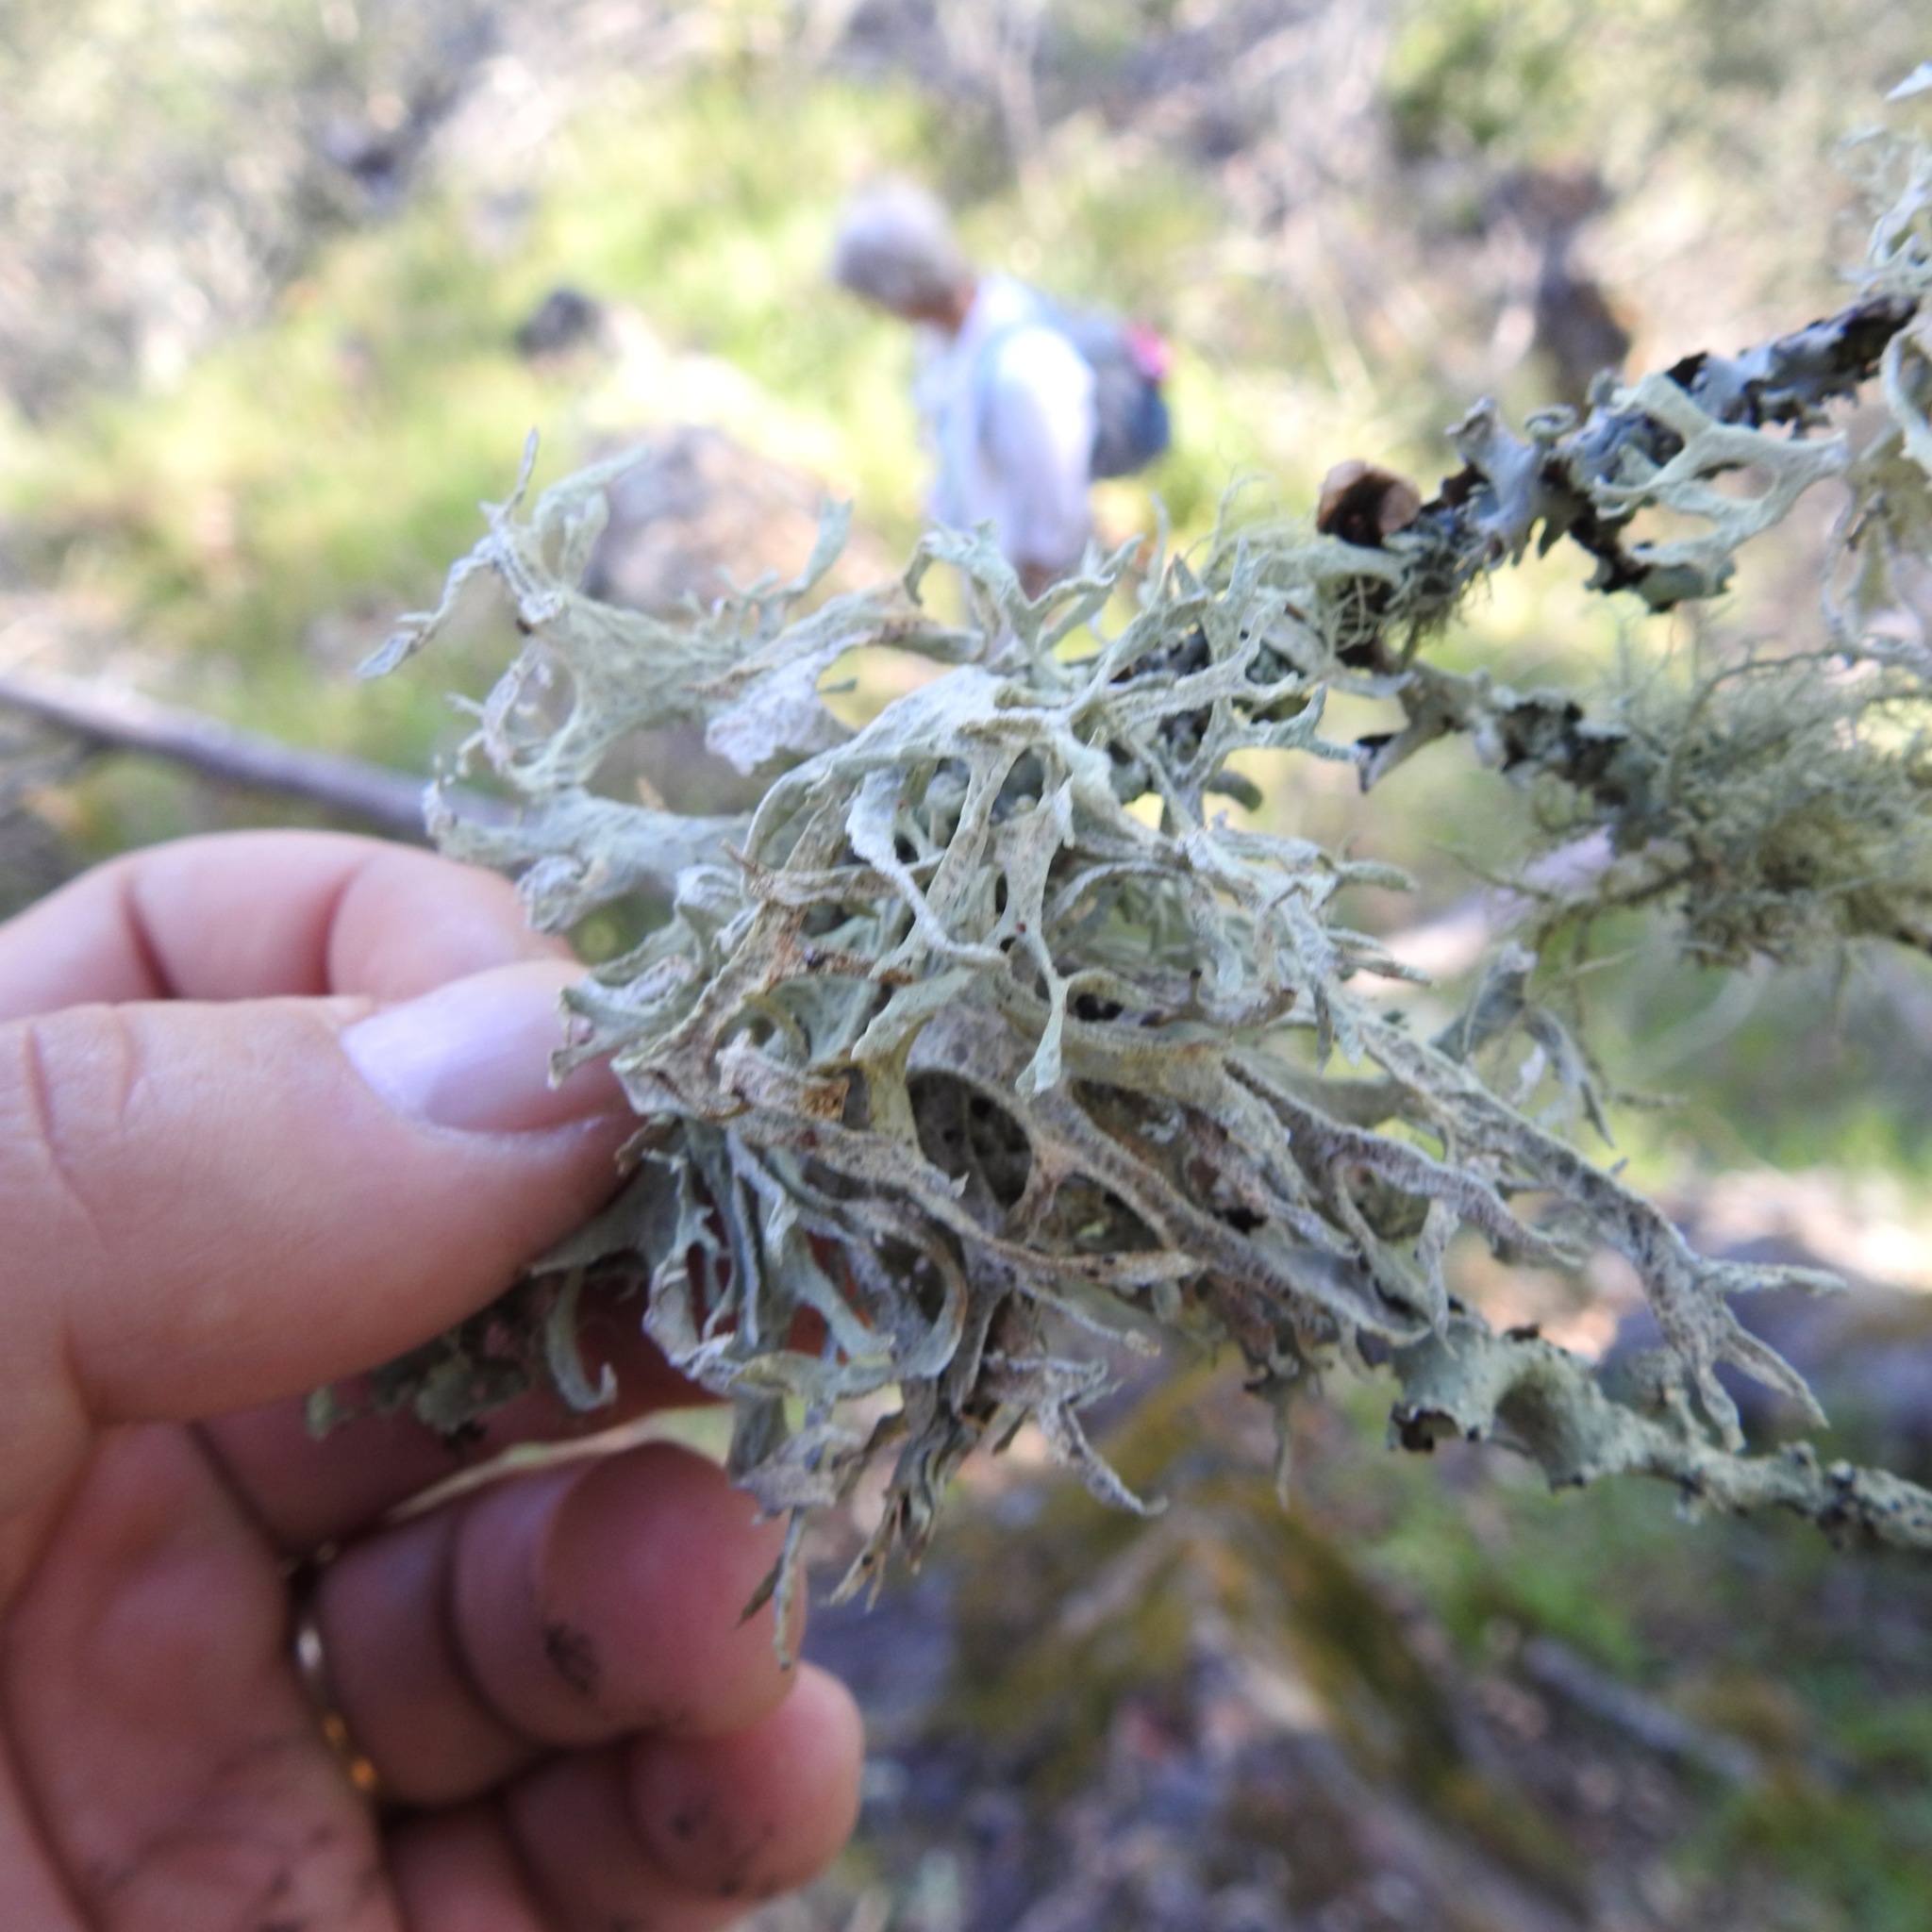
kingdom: Fungi
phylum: Ascomycota
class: Lecanoromycetes
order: Lecanorales
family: Parmeliaceae
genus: Evernia
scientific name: Evernia prunastri
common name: Oak moss
